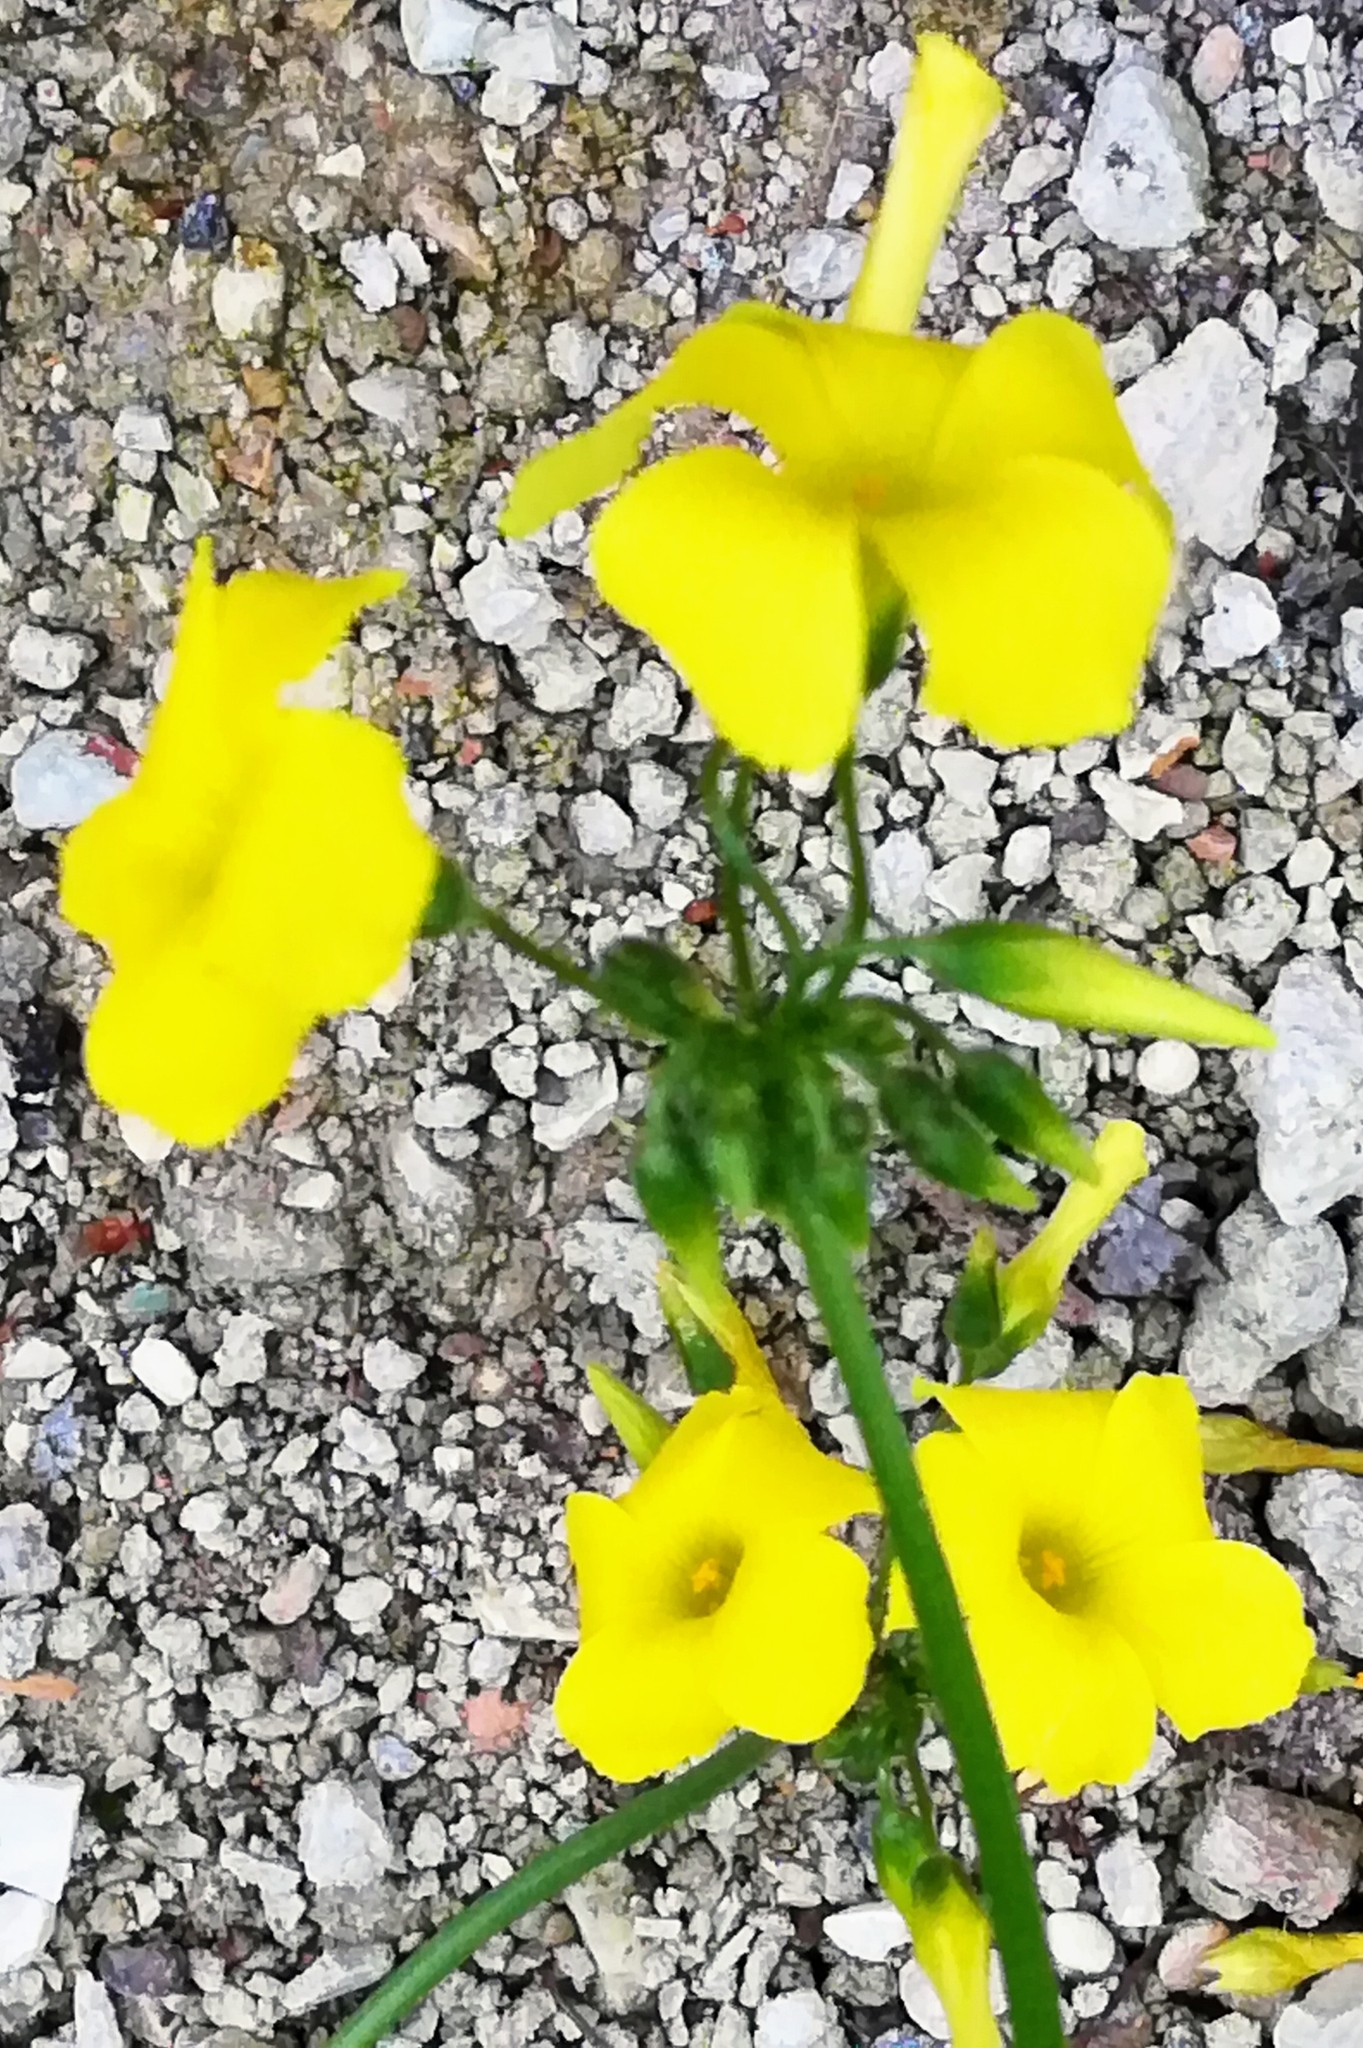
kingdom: Plantae
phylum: Tracheophyta
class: Magnoliopsida
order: Oxalidales
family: Oxalidaceae
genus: Oxalis
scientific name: Oxalis pes-caprae
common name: Bermuda-buttercup
